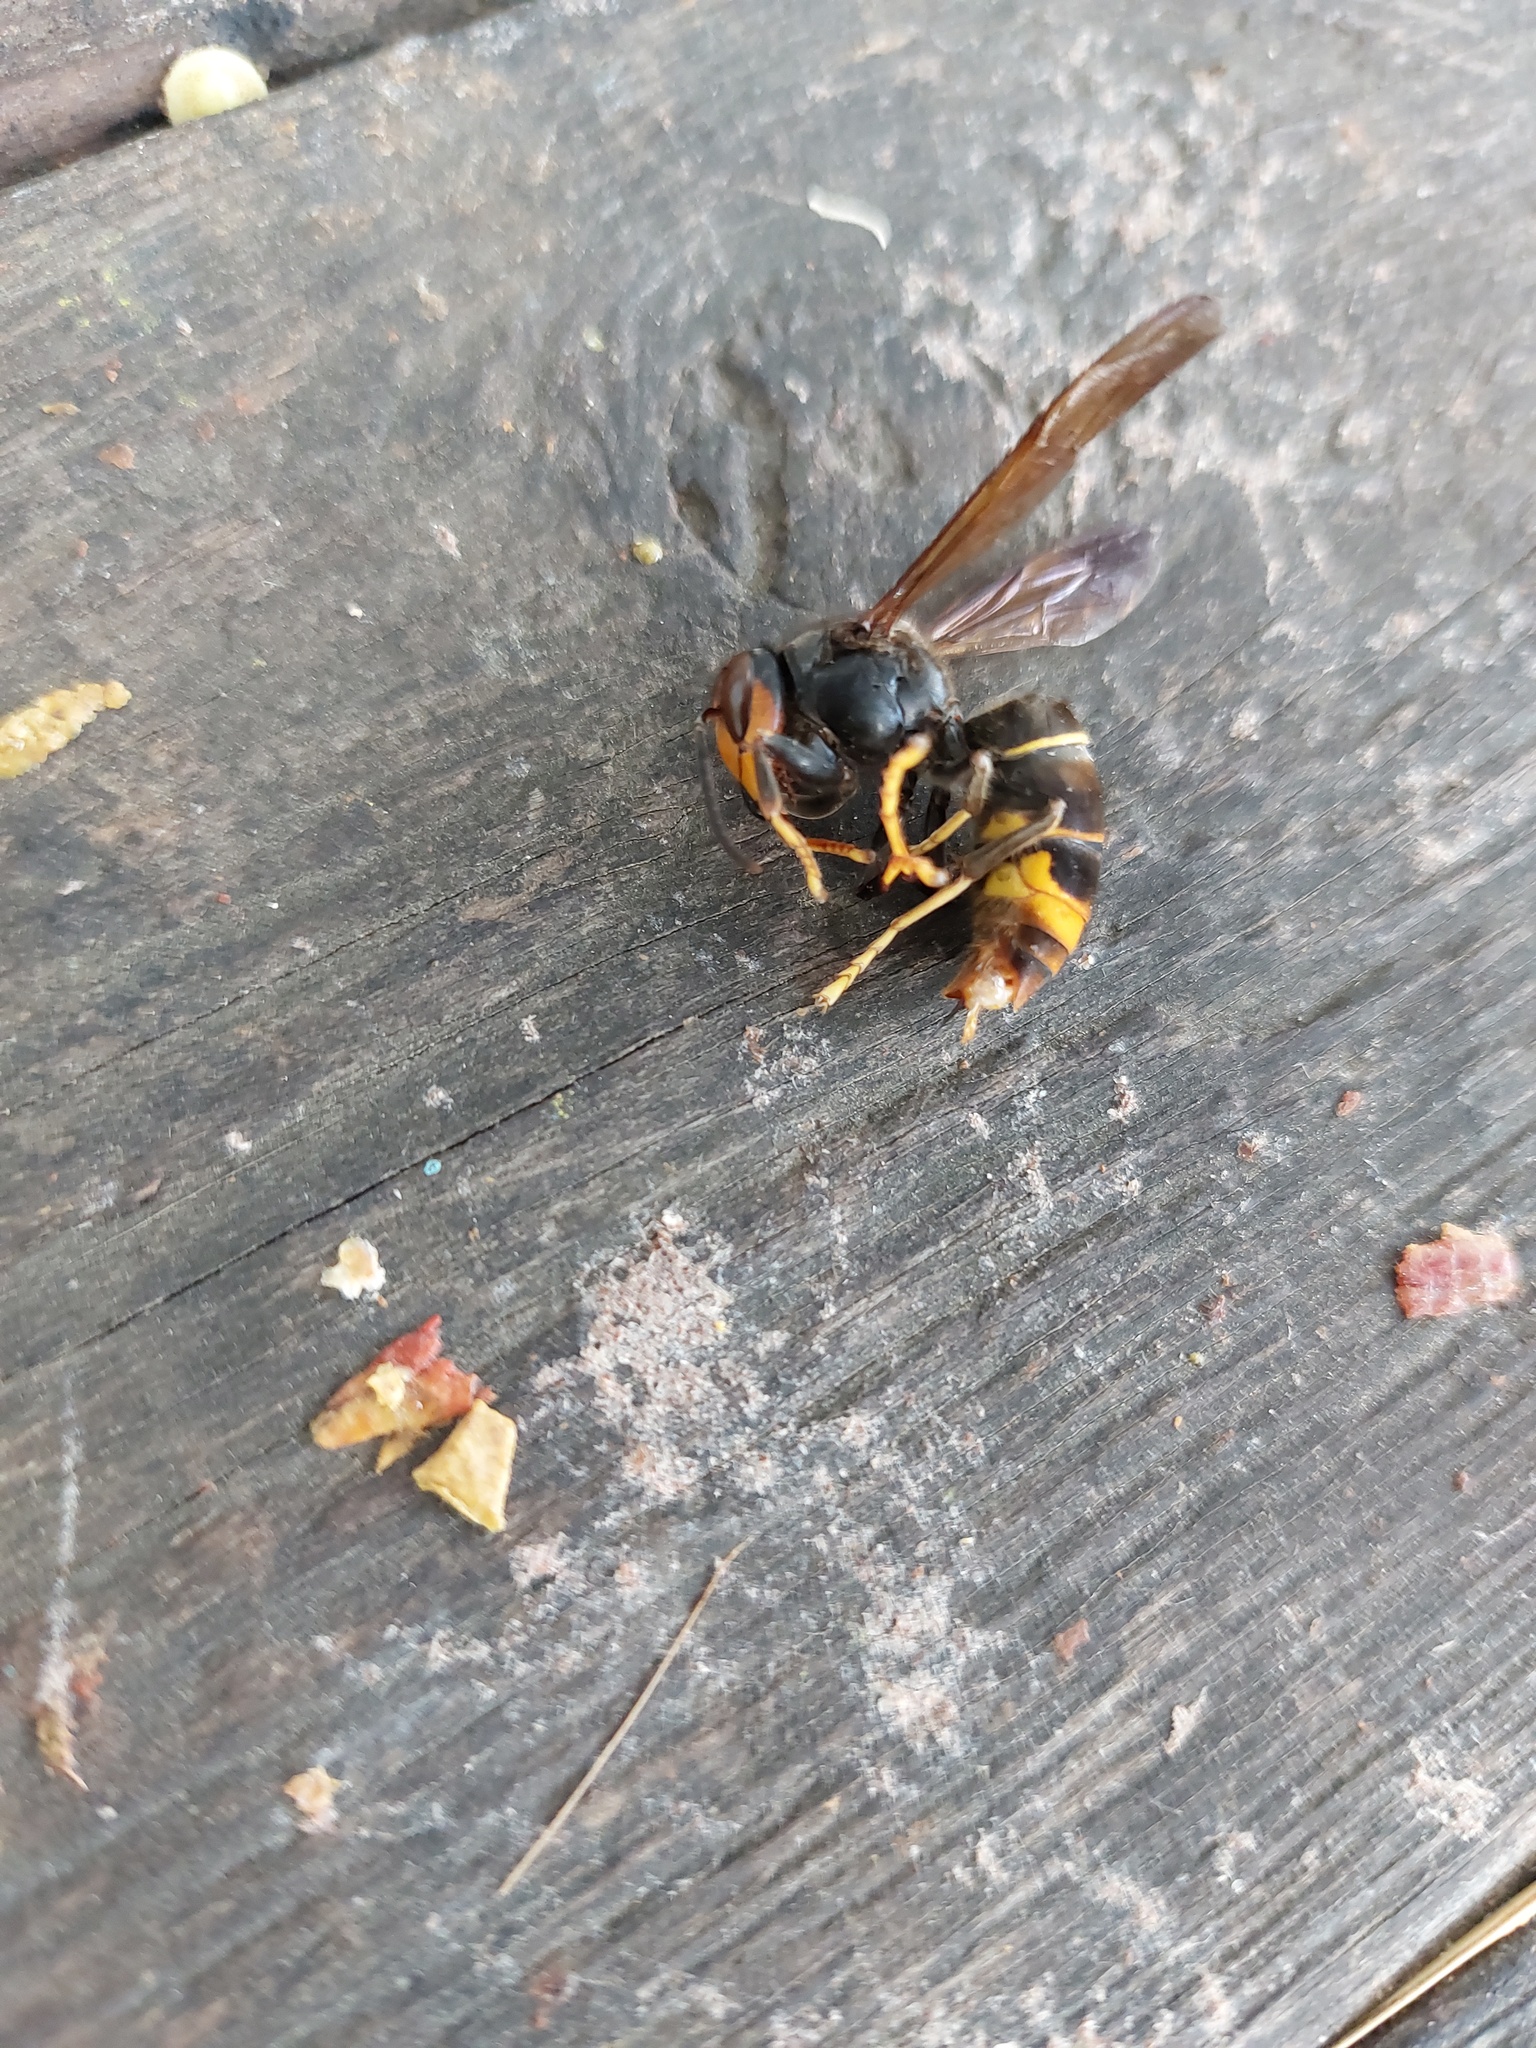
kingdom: Animalia
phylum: Arthropoda
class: Insecta
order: Hymenoptera
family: Vespidae
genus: Vespa
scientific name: Vespa velutina
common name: Asian hornet
